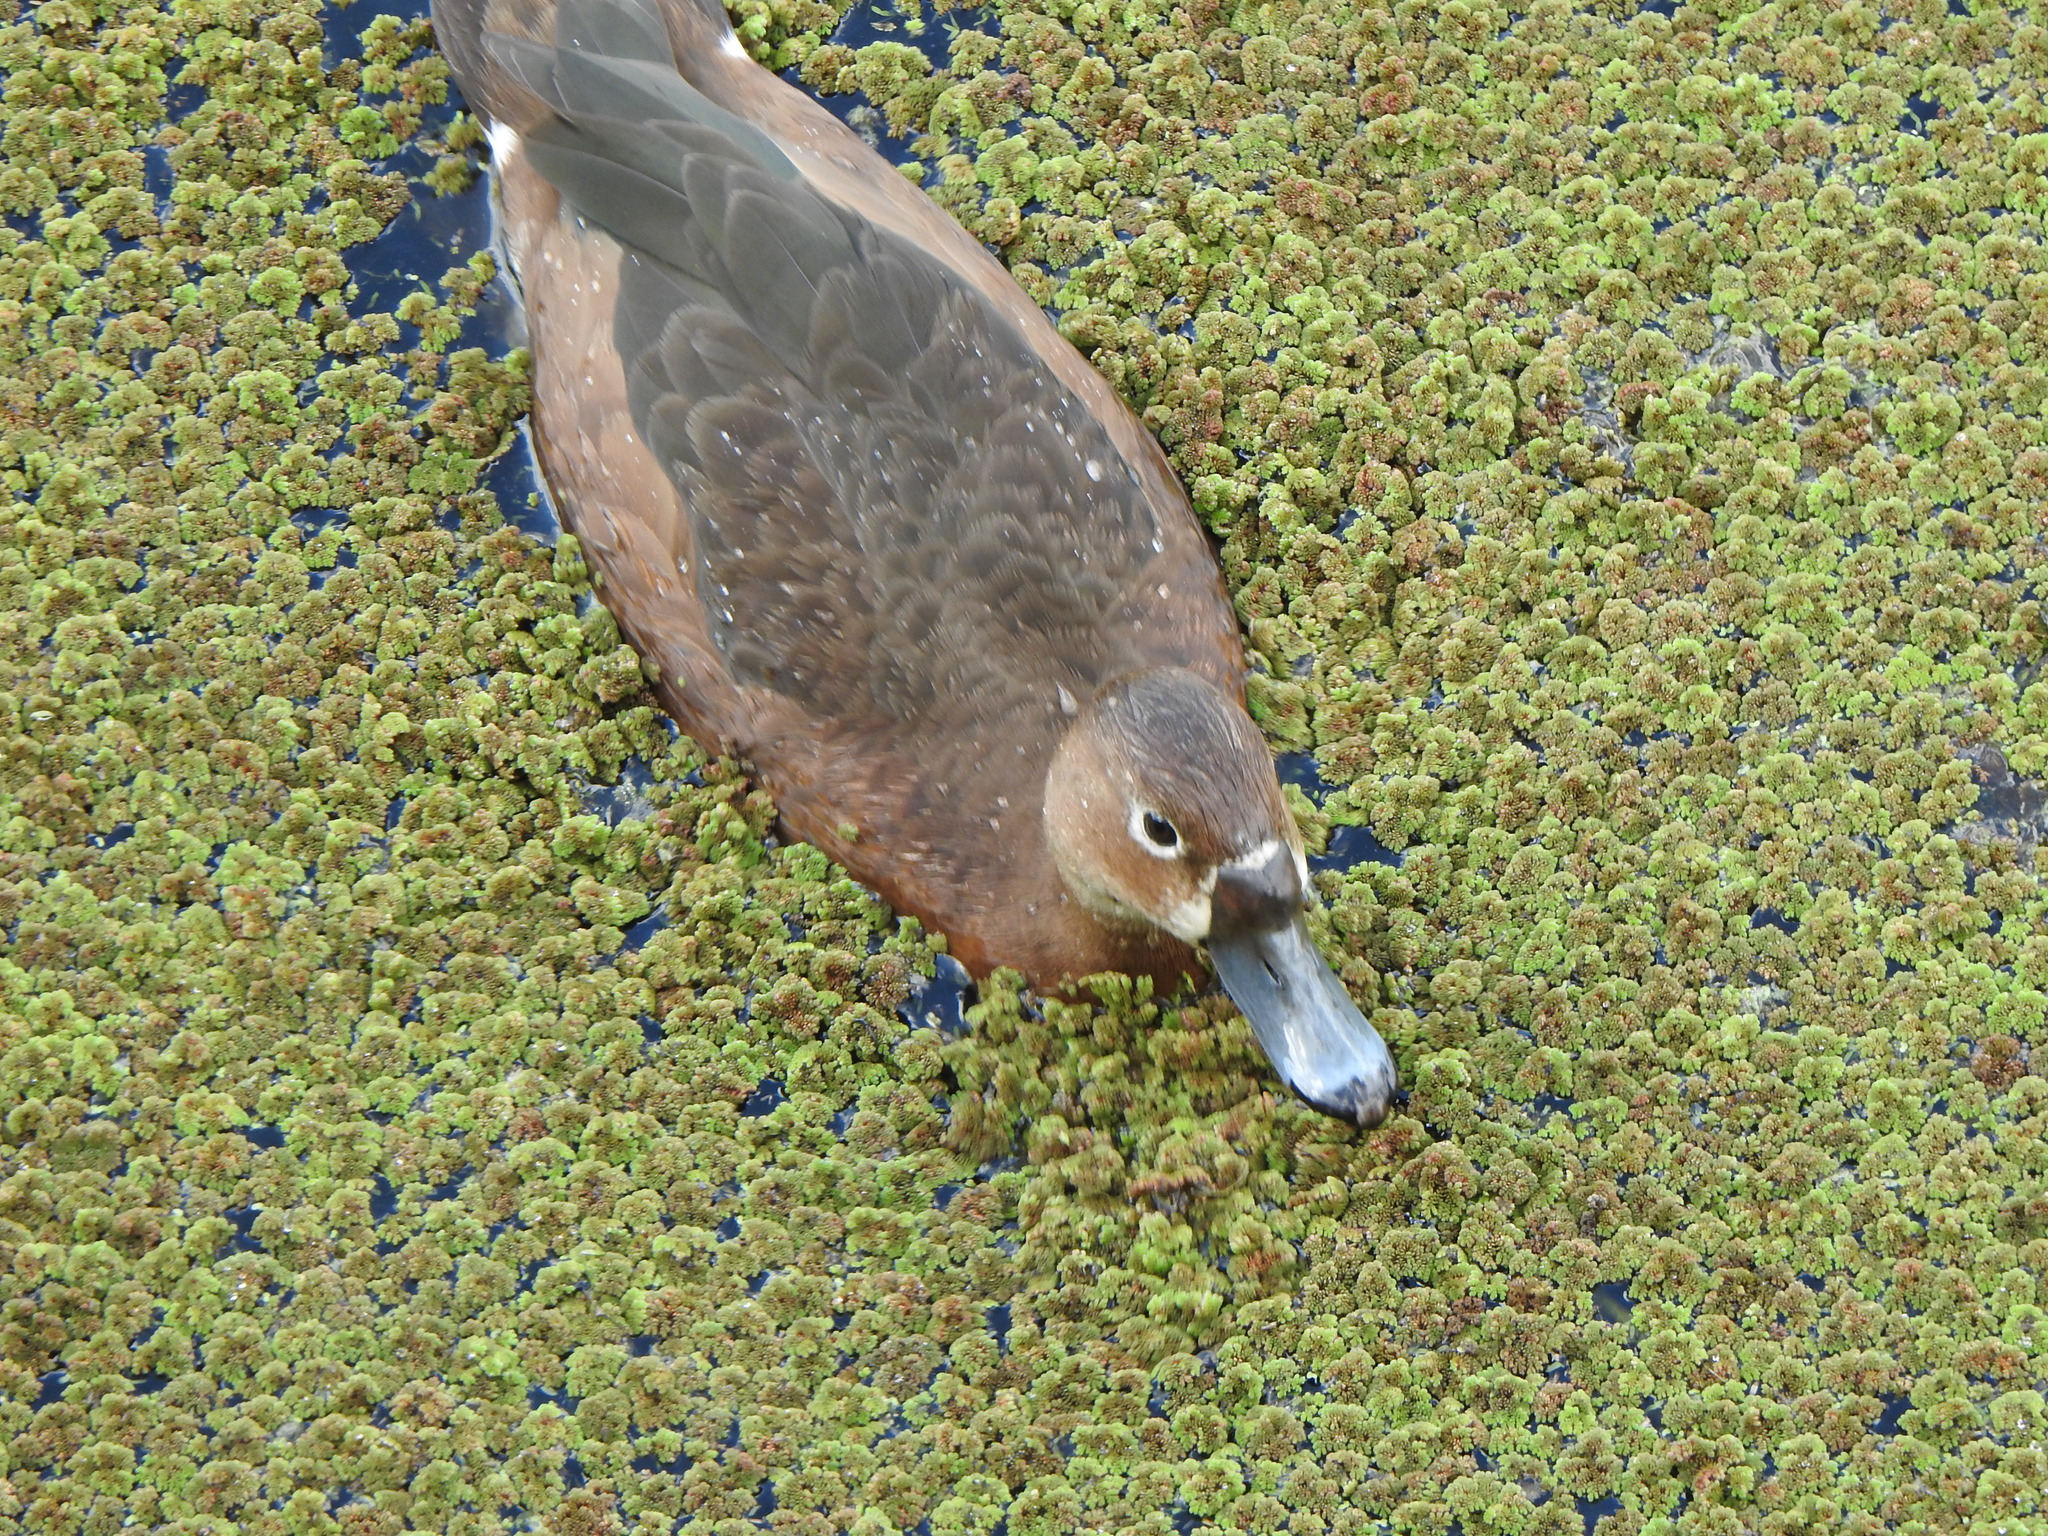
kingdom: Animalia
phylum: Chordata
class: Aves
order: Anseriformes
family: Anatidae
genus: Netta
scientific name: Netta peposaca
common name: Rosy-billed pochard
